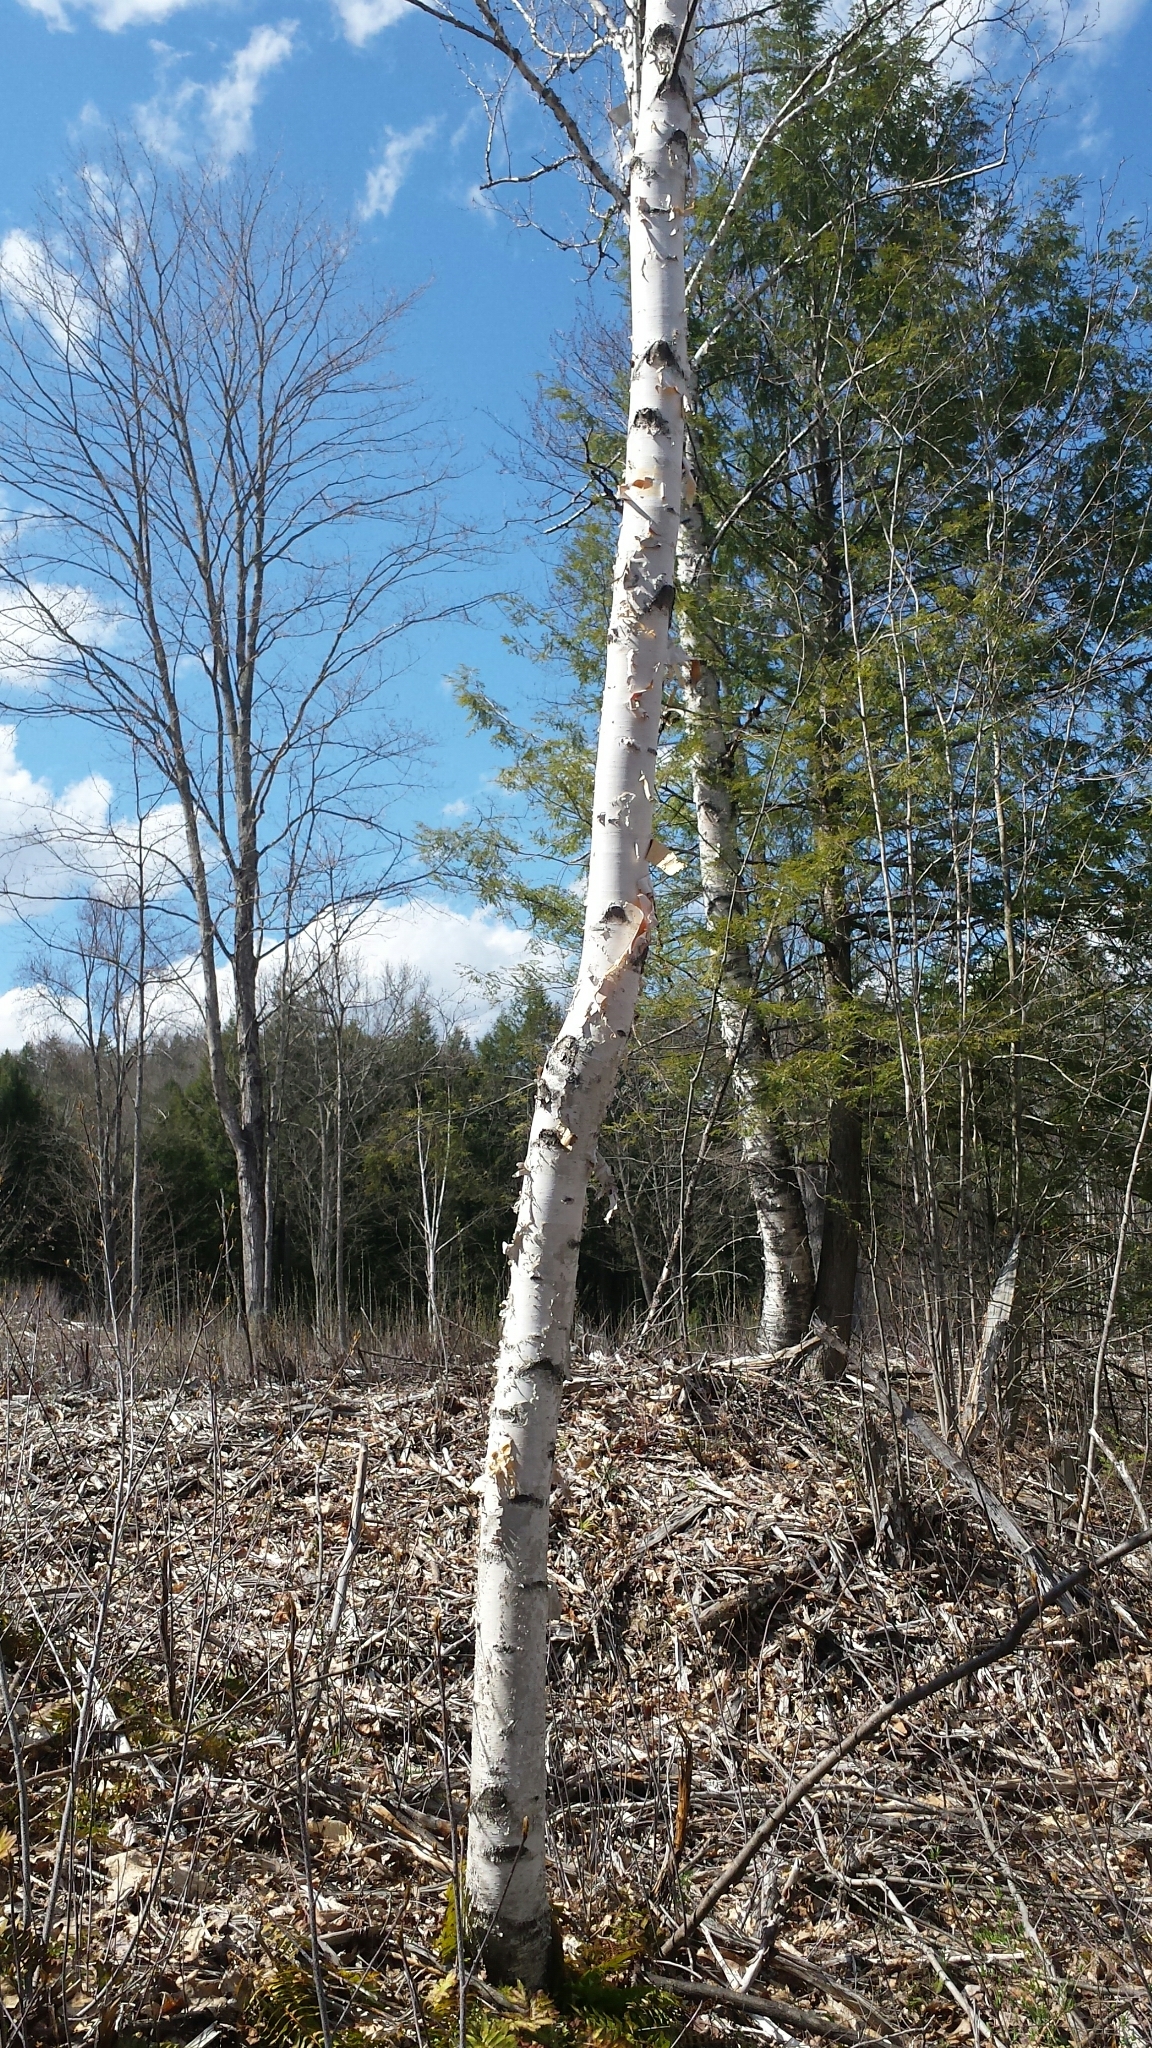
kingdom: Plantae
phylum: Tracheophyta
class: Magnoliopsida
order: Fagales
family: Betulaceae
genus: Betula
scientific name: Betula papyrifera
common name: Paper birch
